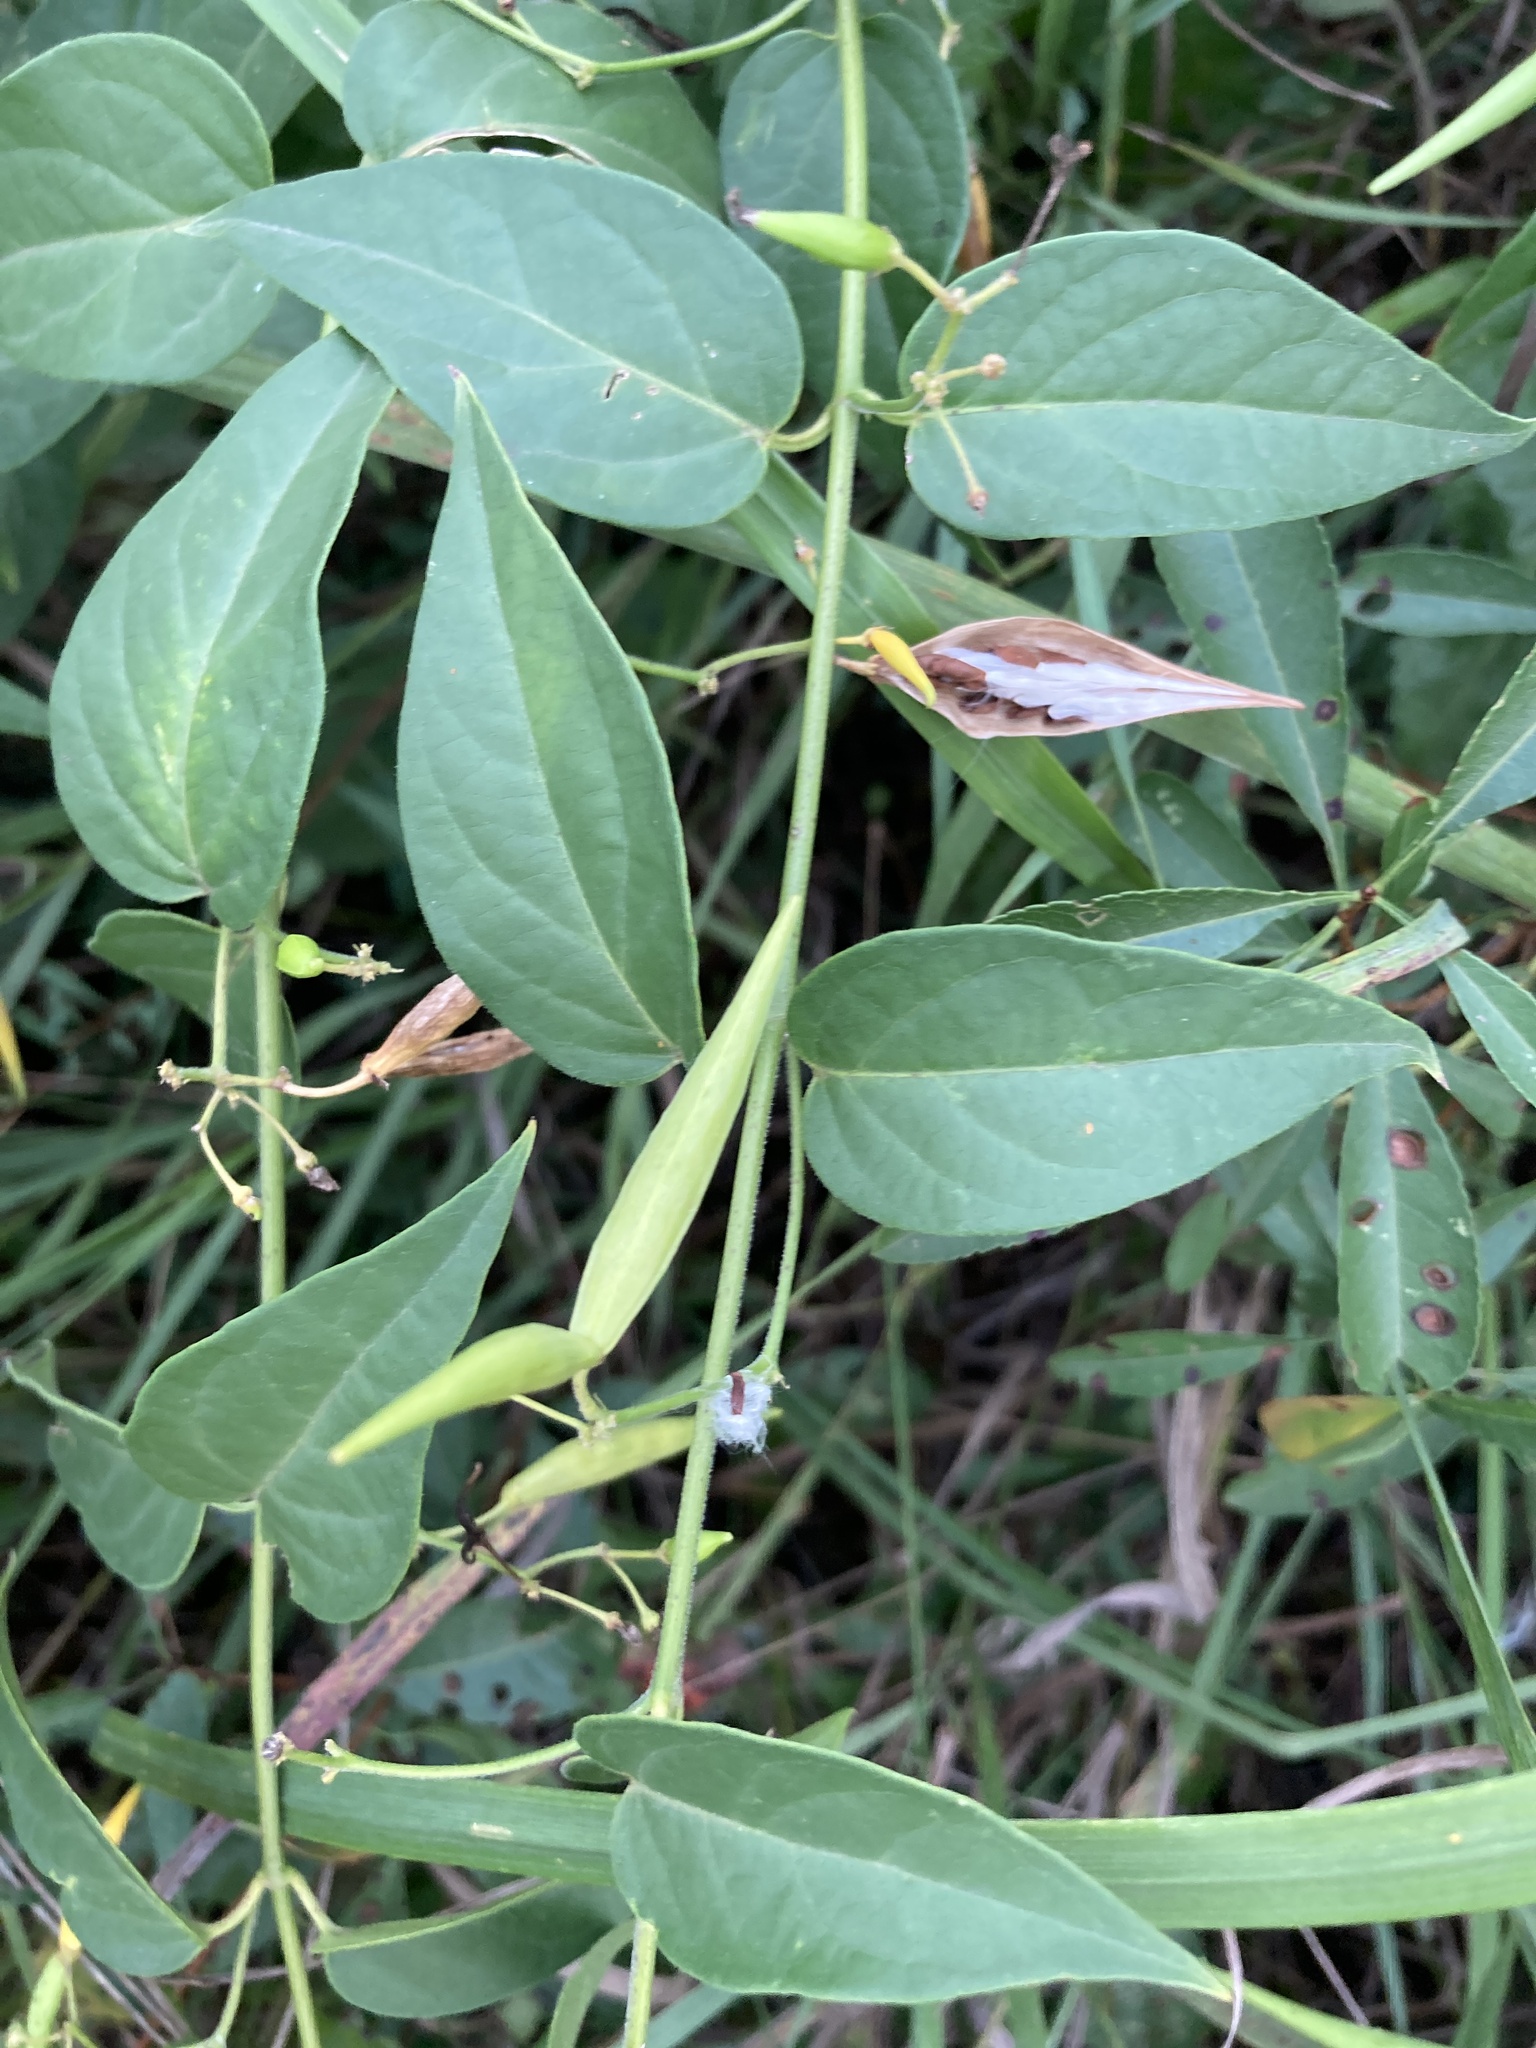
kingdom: Plantae
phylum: Tracheophyta
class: Magnoliopsida
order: Gentianales
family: Apocynaceae
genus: Vincetoxicum
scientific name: Vincetoxicum rossicum
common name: Dog-strangling vine
